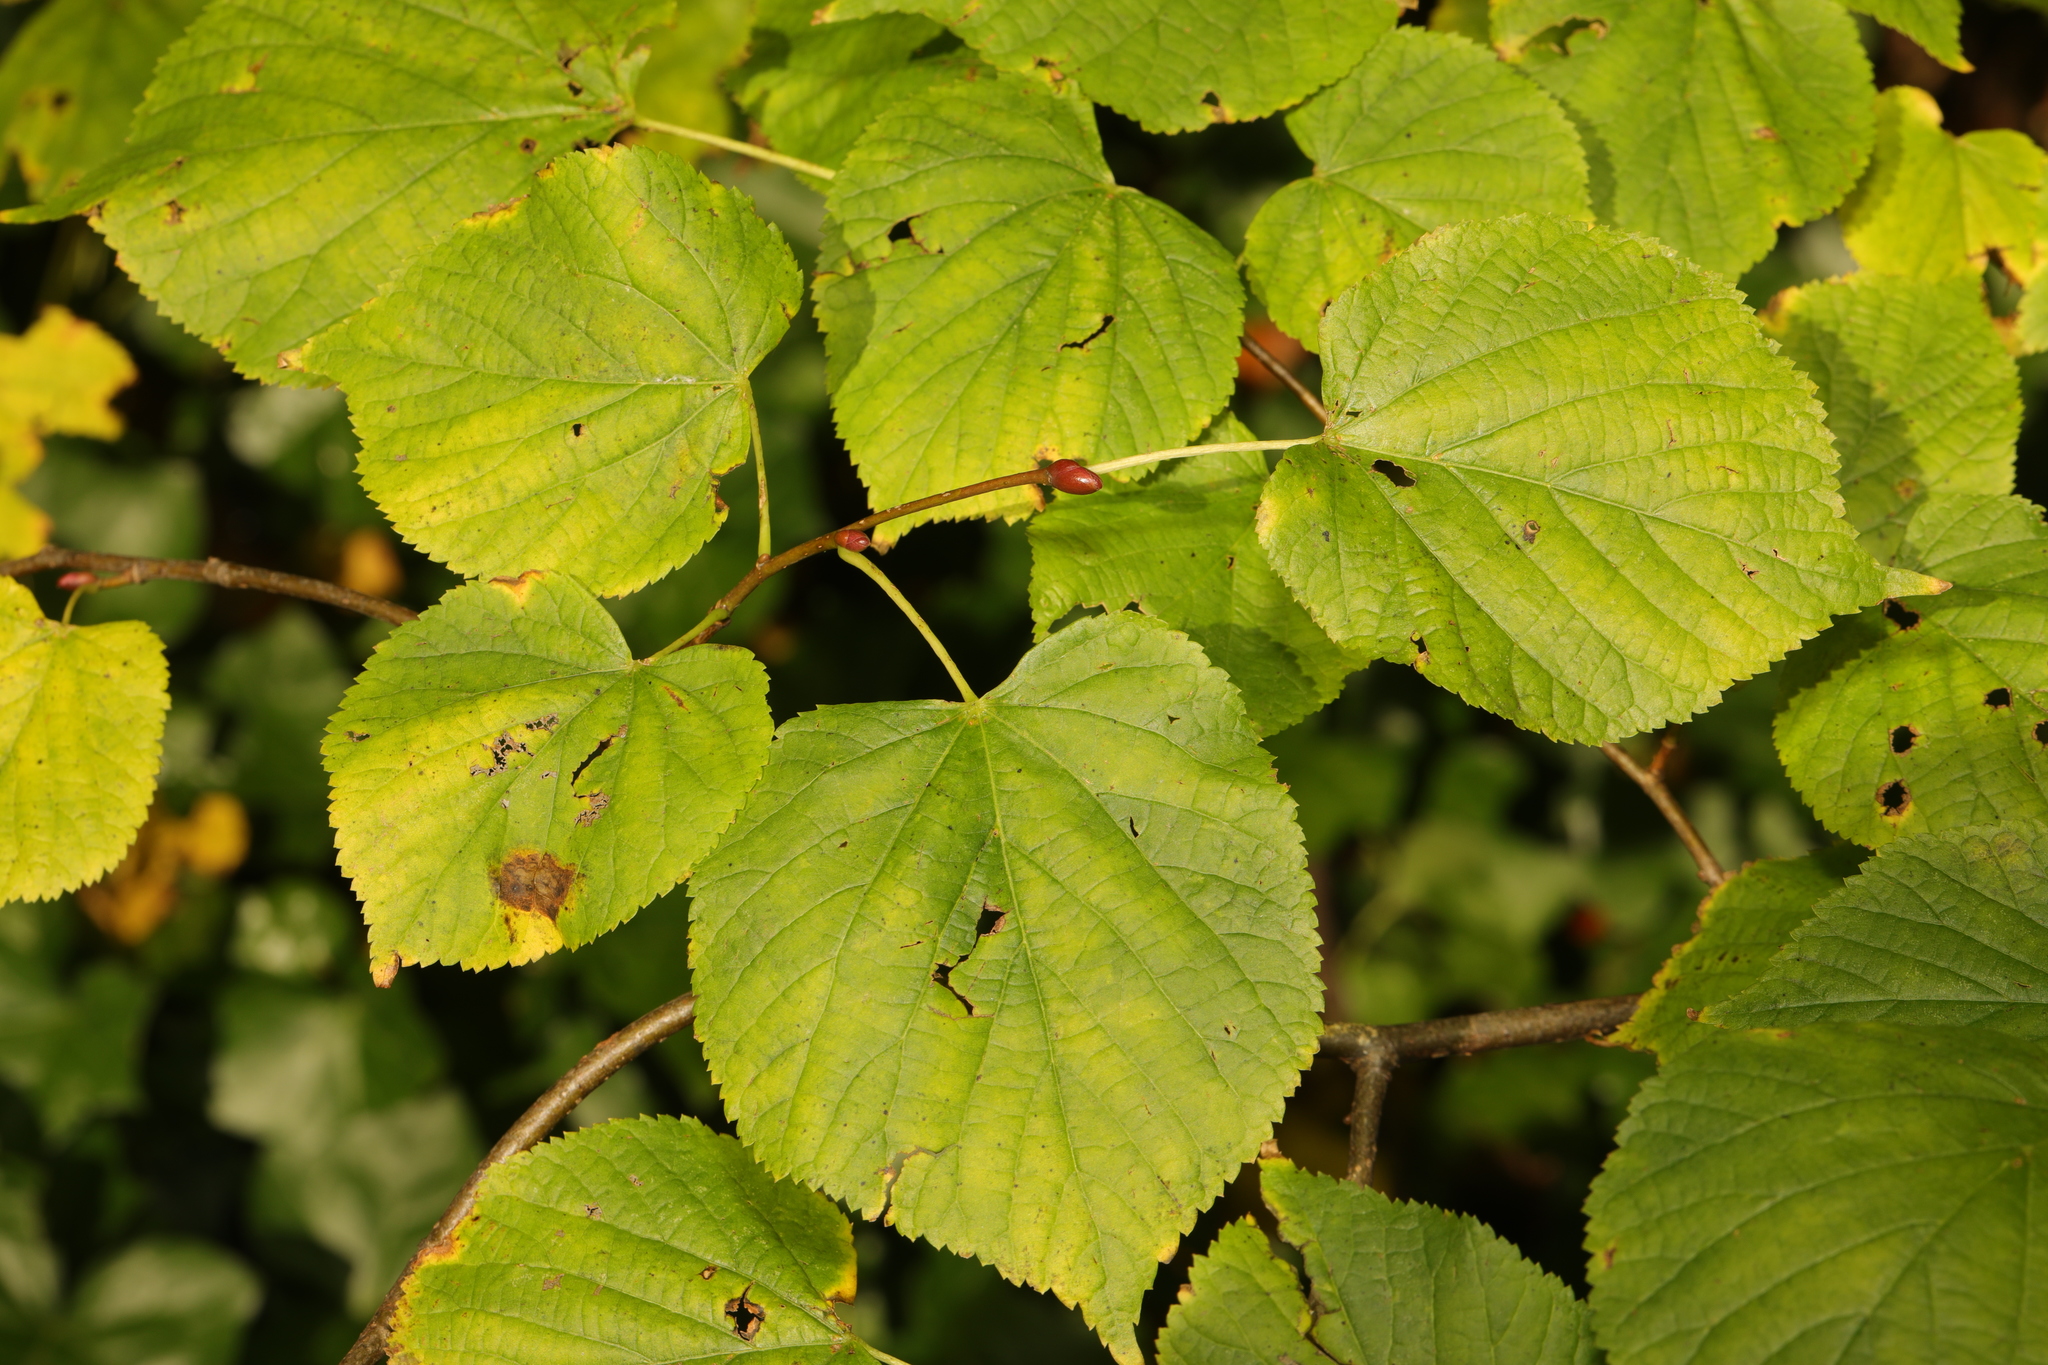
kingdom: Plantae
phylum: Tracheophyta
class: Magnoliopsida
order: Malvales
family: Malvaceae
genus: Tilia
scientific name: Tilia europaea
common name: European linden
